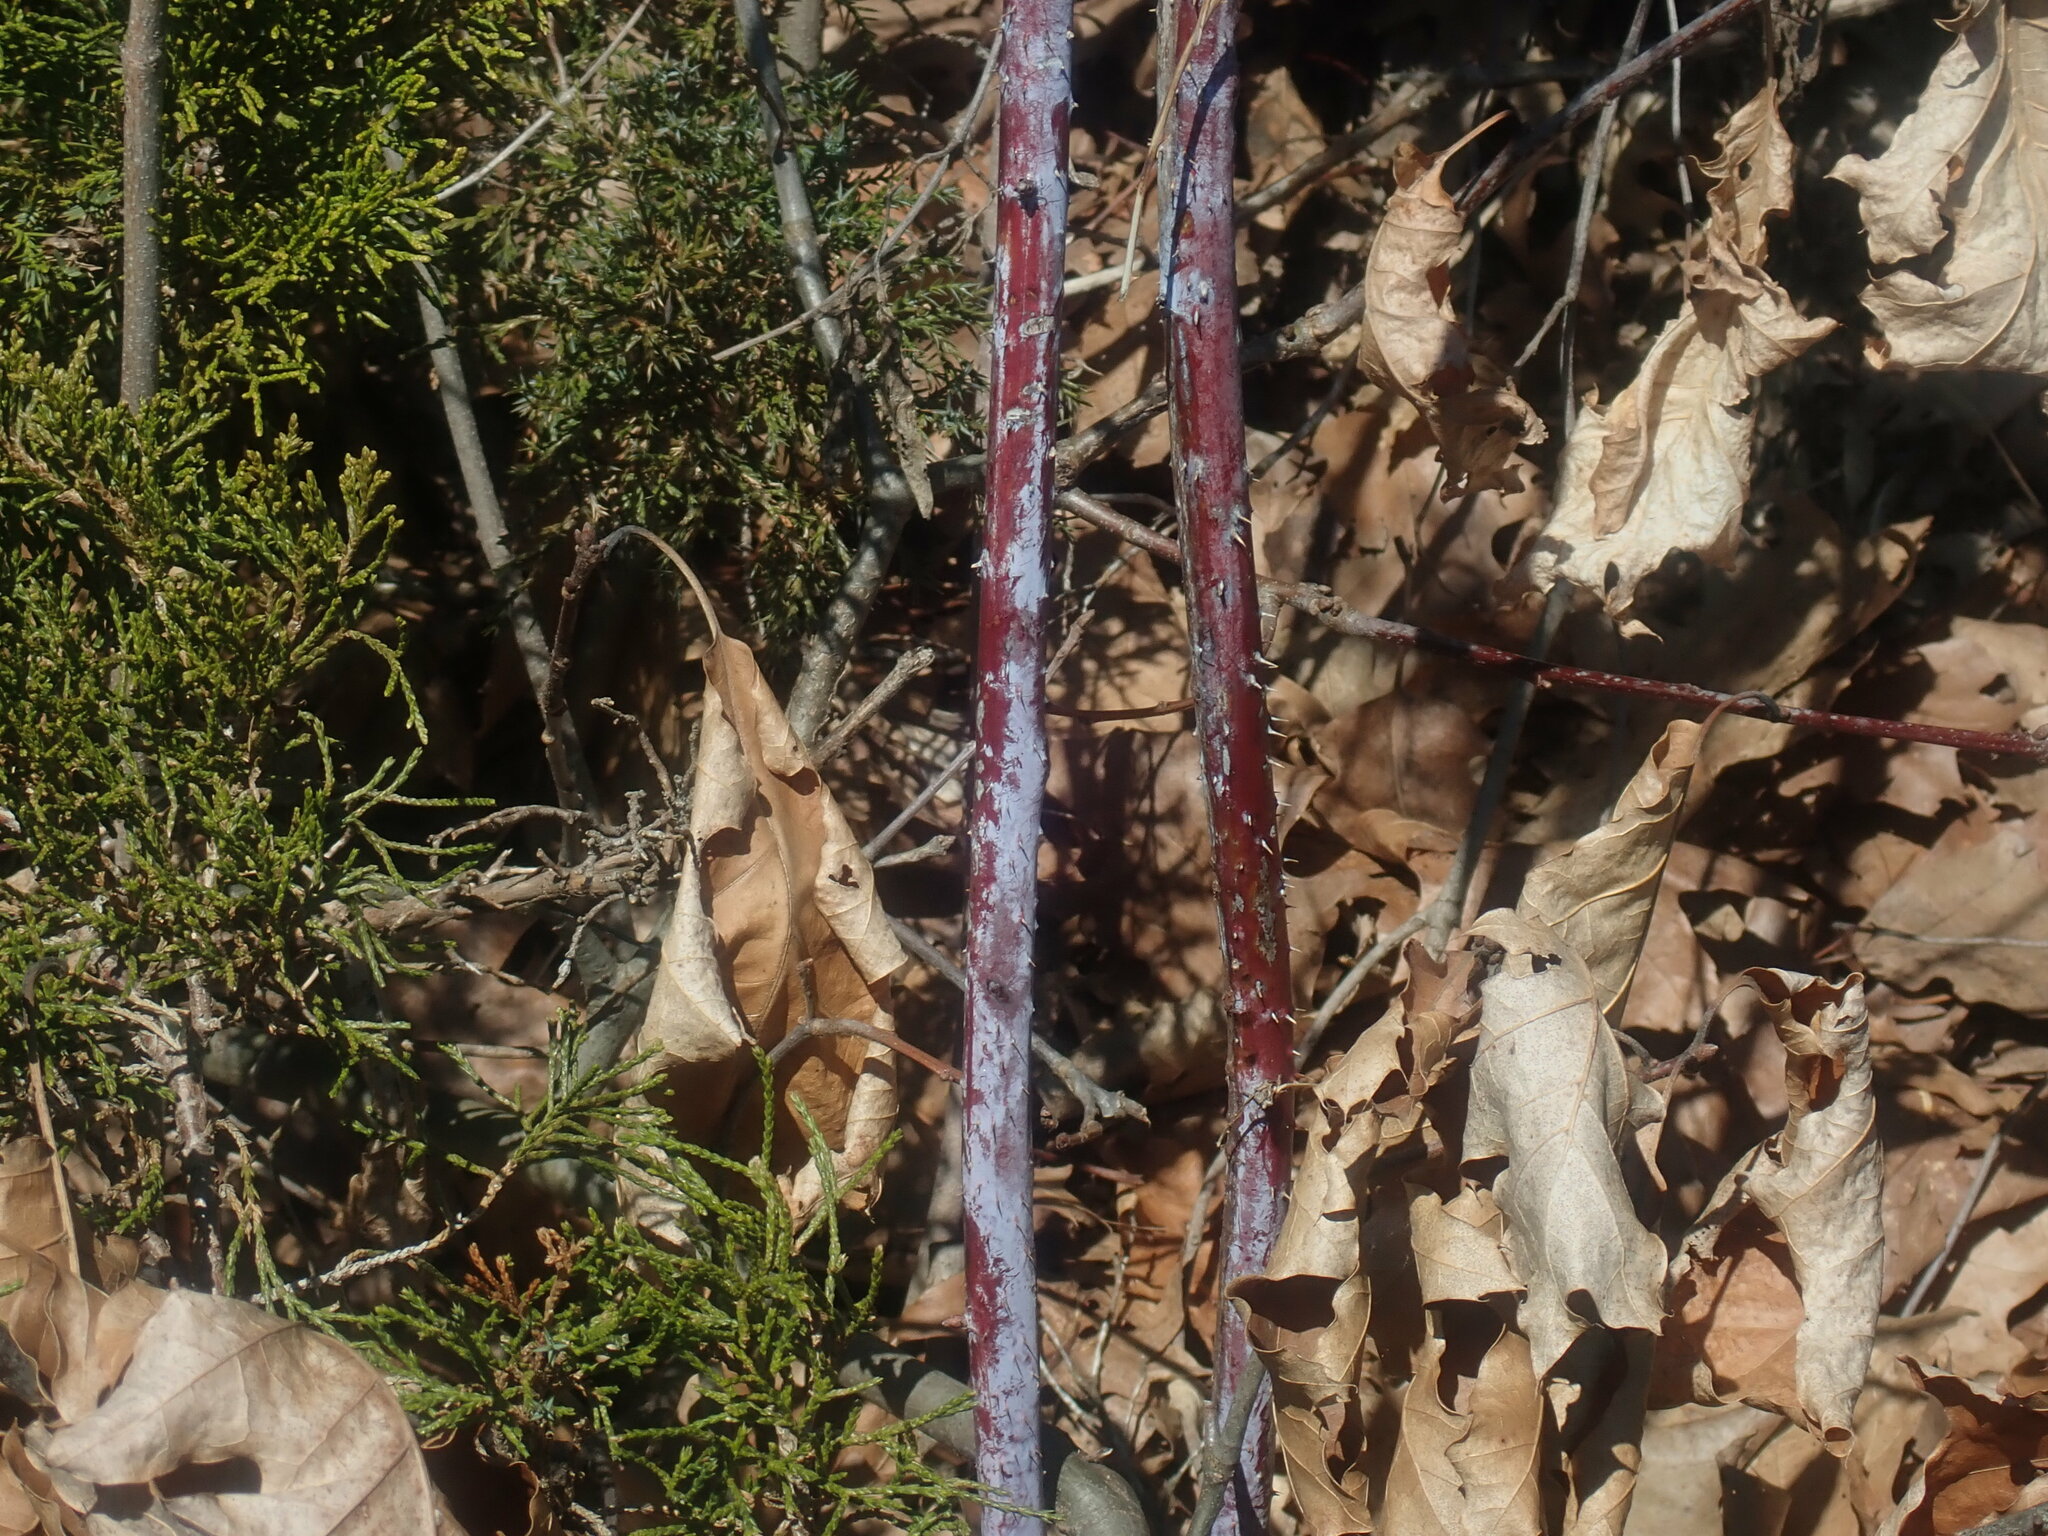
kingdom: Plantae
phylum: Tracheophyta
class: Magnoliopsida
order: Rosales
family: Rosaceae
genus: Rubus
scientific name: Rubus occidentalis
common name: Black raspberry
